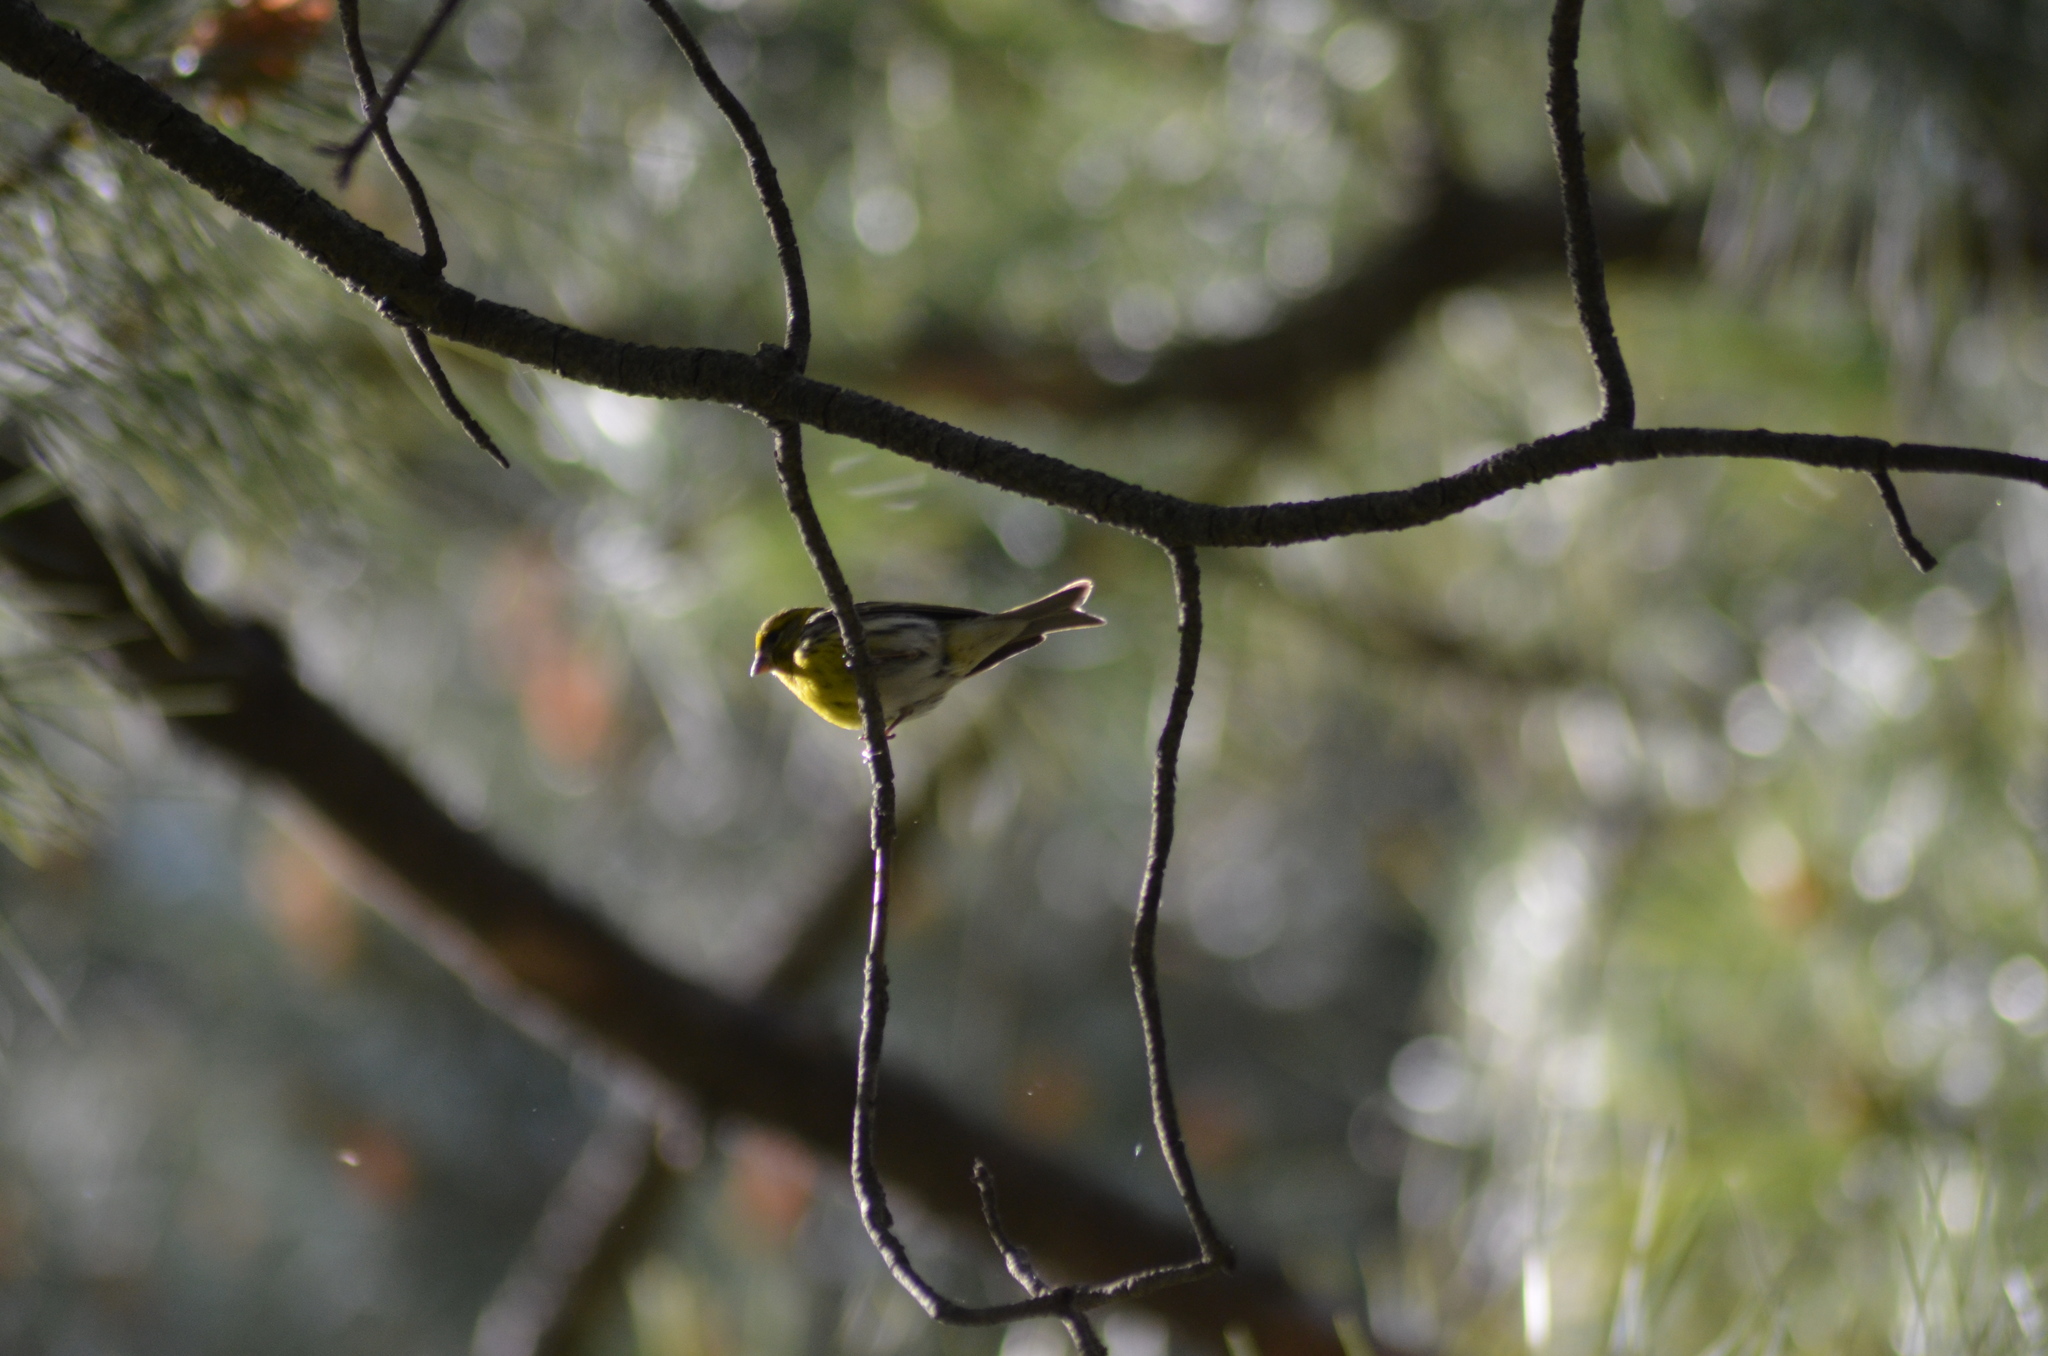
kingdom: Animalia
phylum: Chordata
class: Aves
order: Passeriformes
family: Fringillidae
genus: Serinus
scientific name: Serinus serinus
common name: European serin
